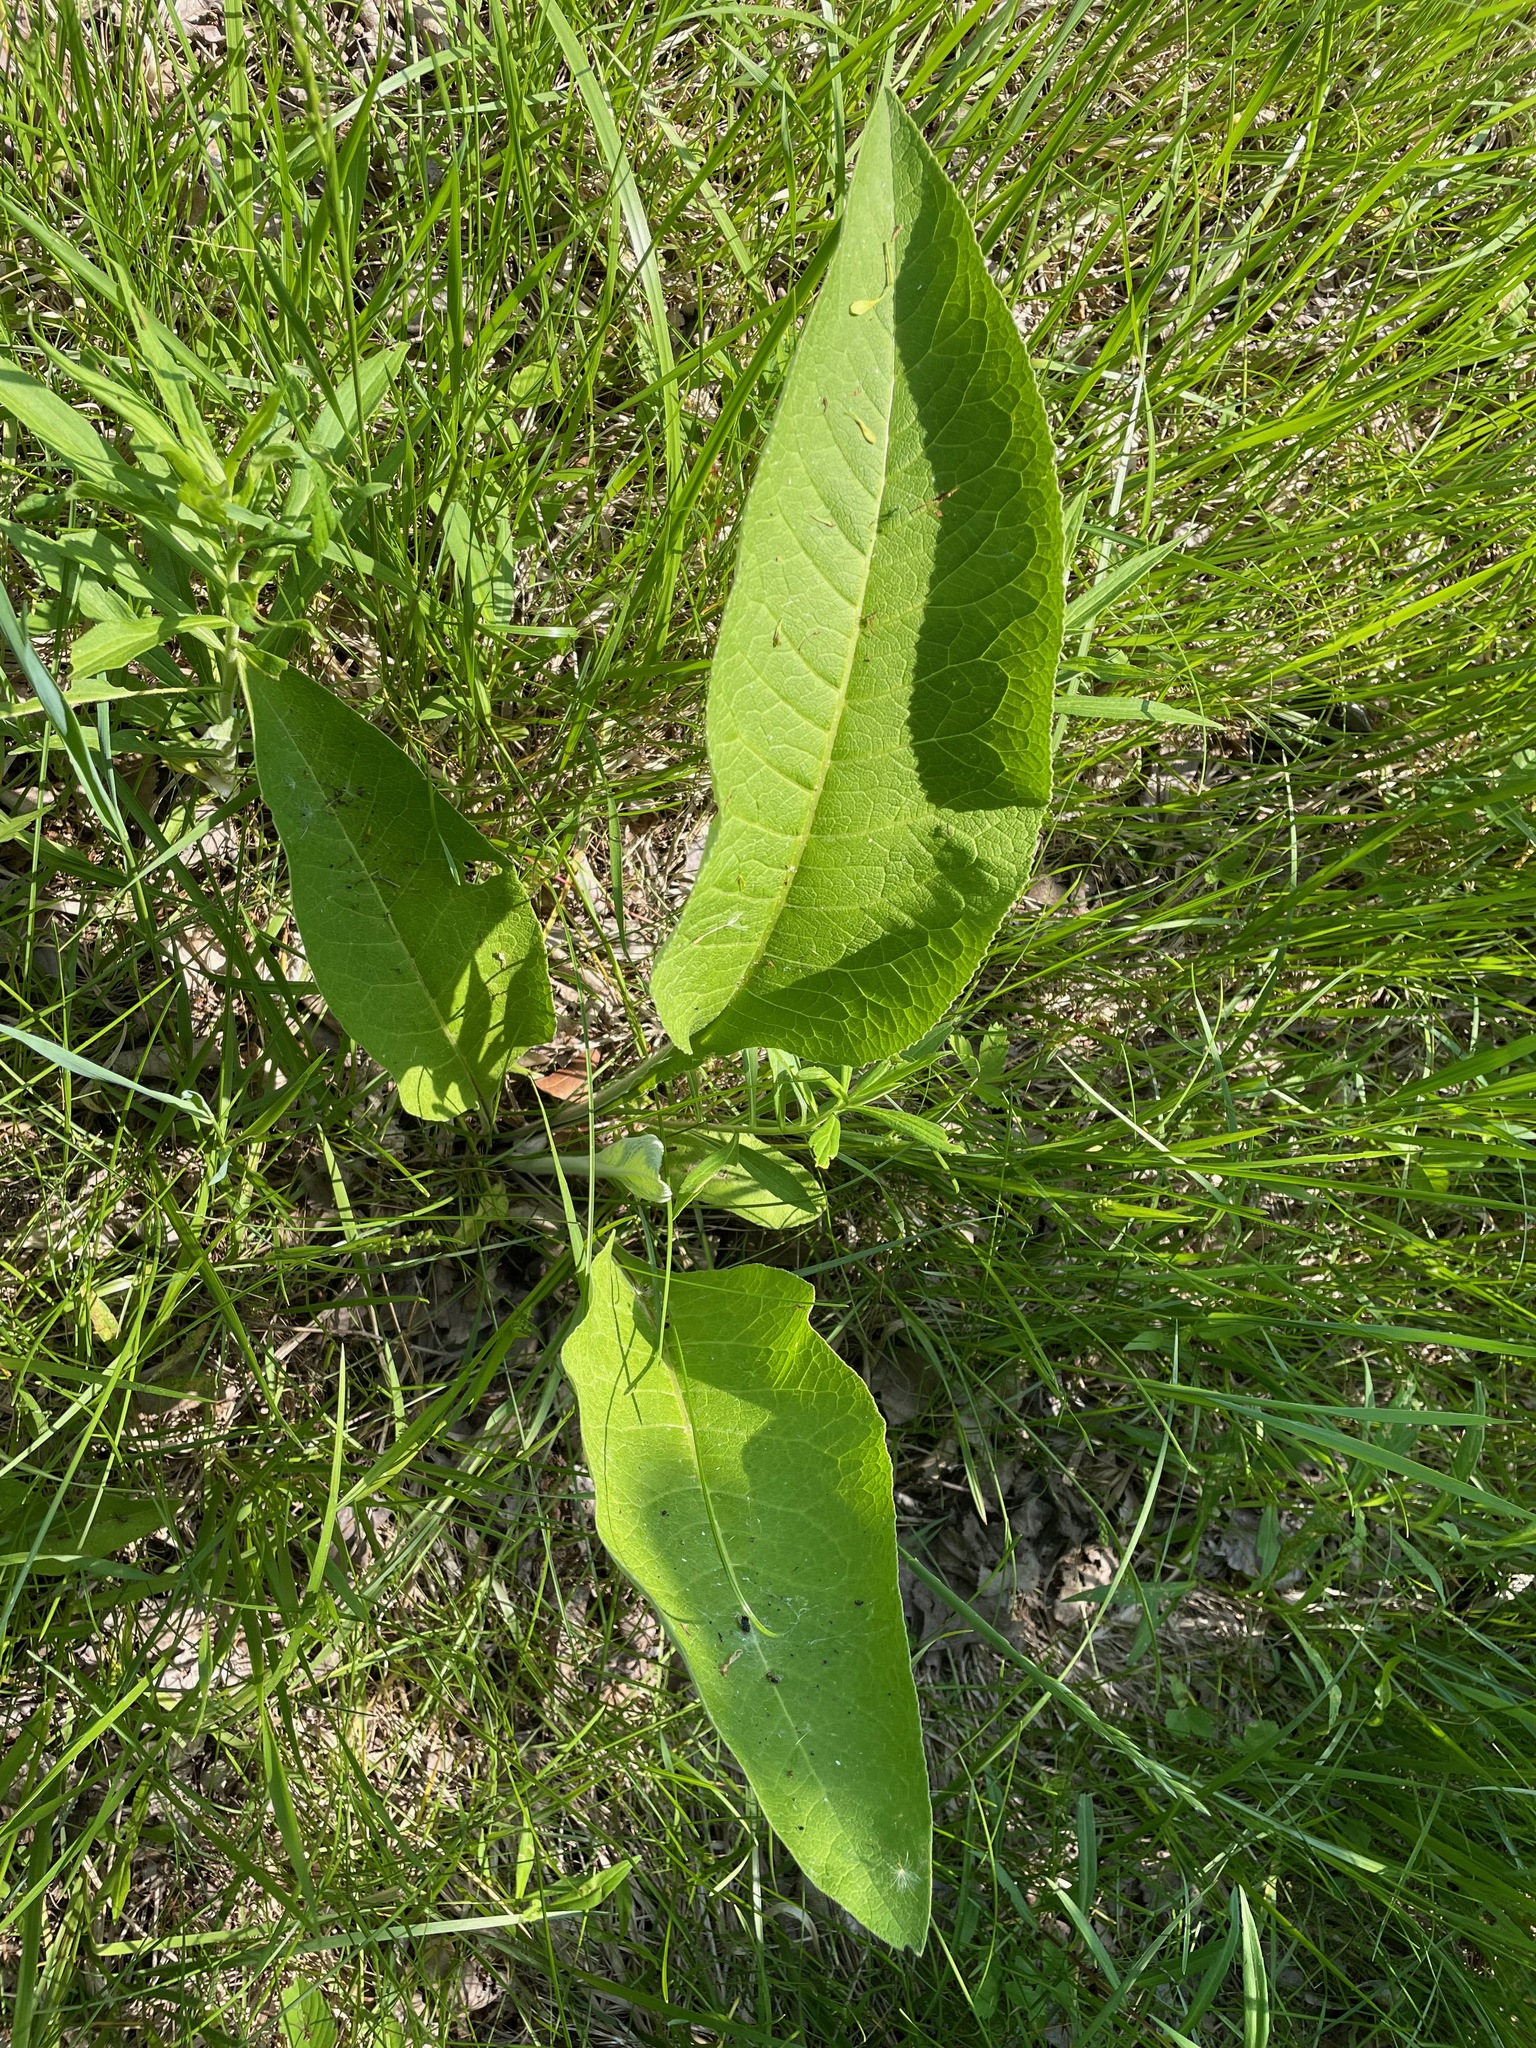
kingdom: Plantae
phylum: Tracheophyta
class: Magnoliopsida
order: Asterales
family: Asteraceae
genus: Inula
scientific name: Inula helenium
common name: Elecampane
